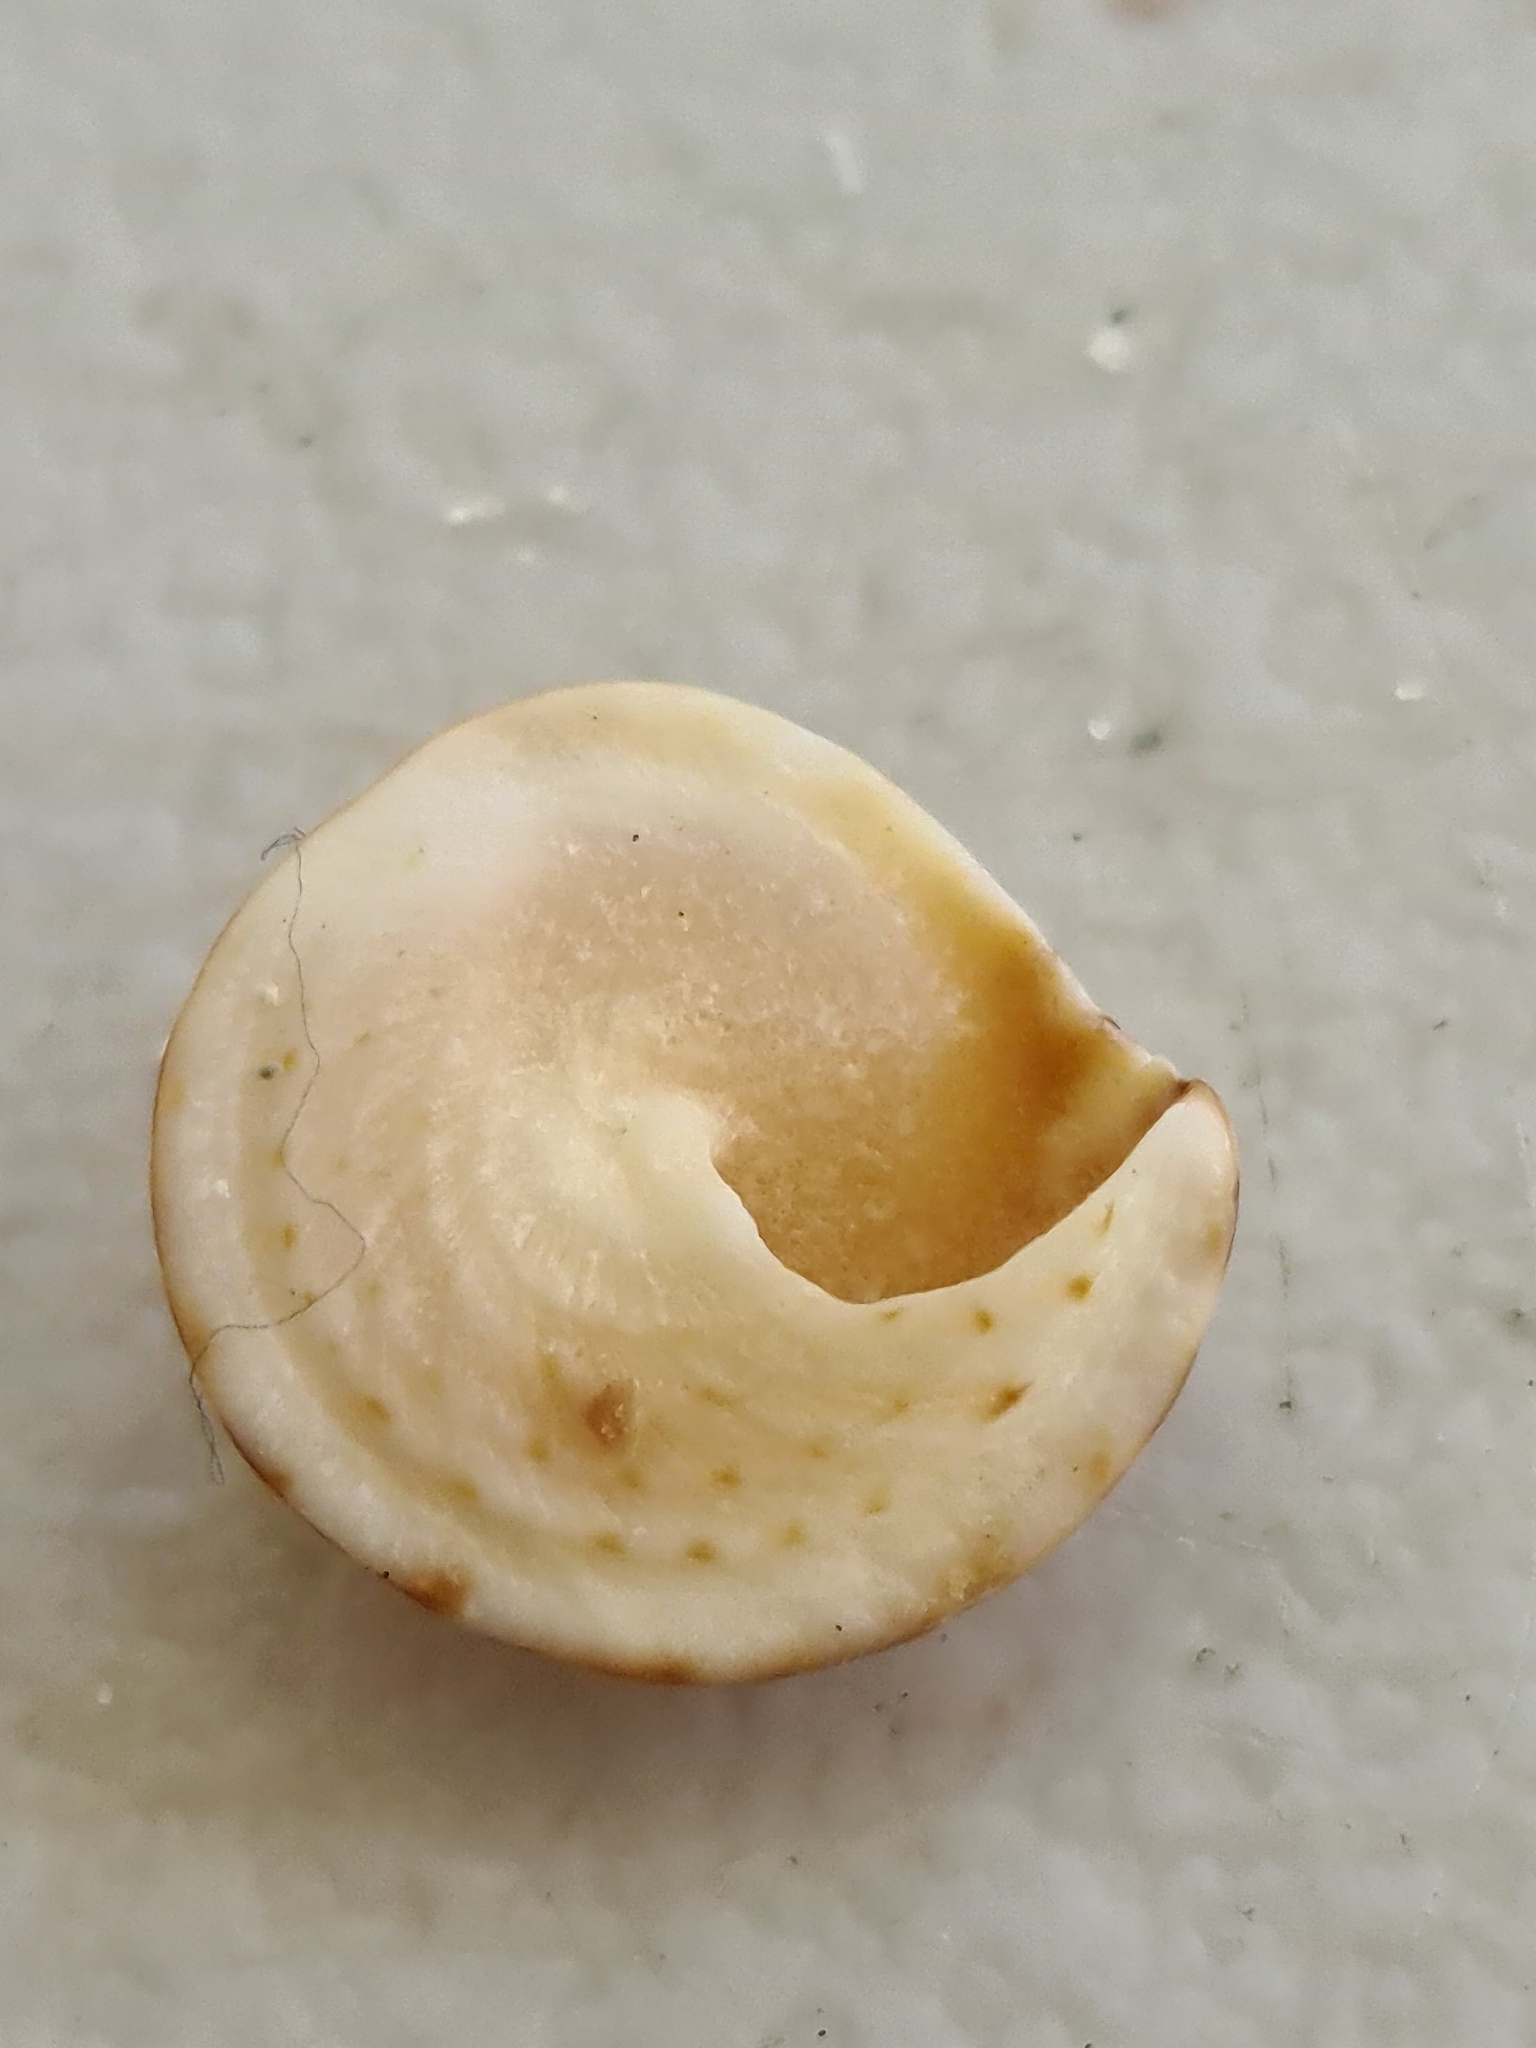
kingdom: Animalia
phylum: Mollusca
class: Gastropoda
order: Littorinimorpha
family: Littorinidae
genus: Bembicium
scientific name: Bembicium nanum
